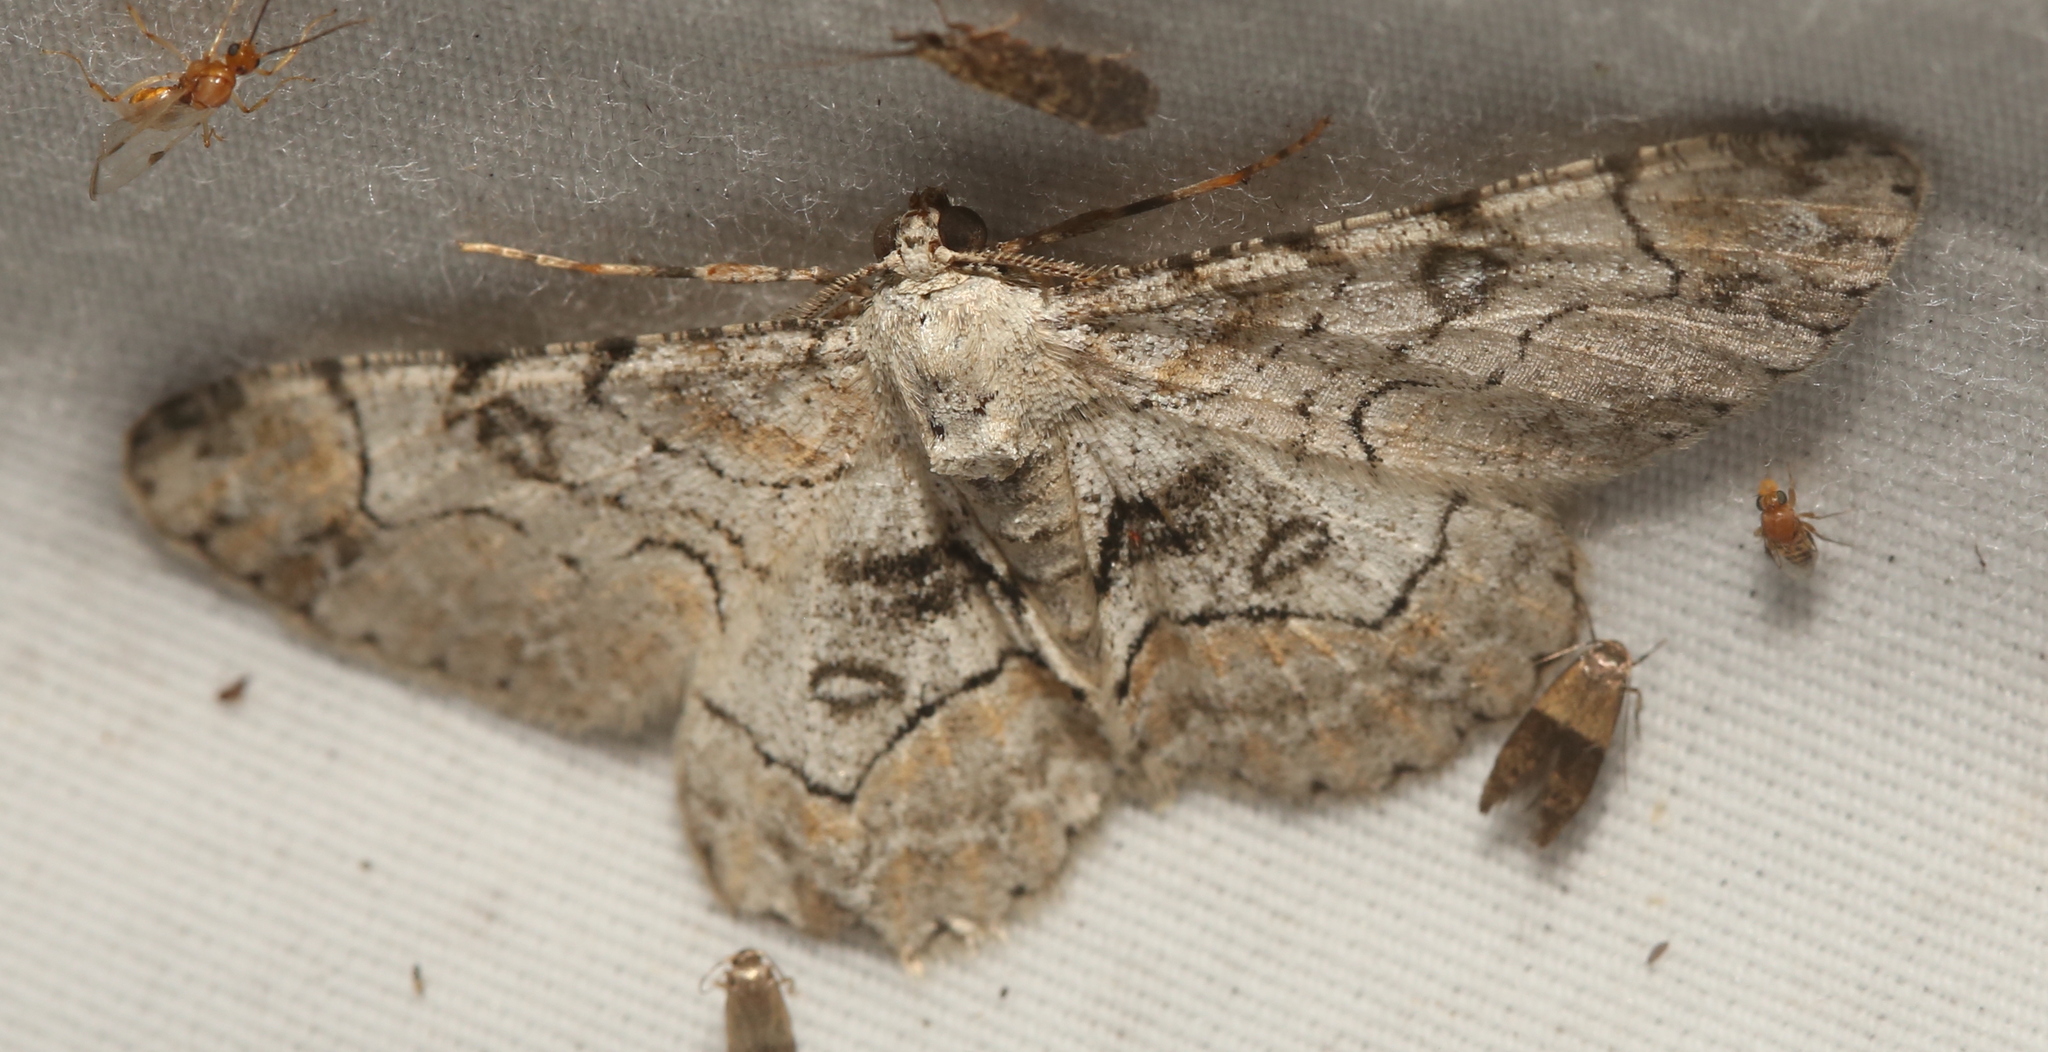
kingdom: Animalia
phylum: Arthropoda
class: Insecta
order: Lepidoptera
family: Geometridae
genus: Iridopsis
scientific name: Iridopsis larvaria
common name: Bent-line gray
